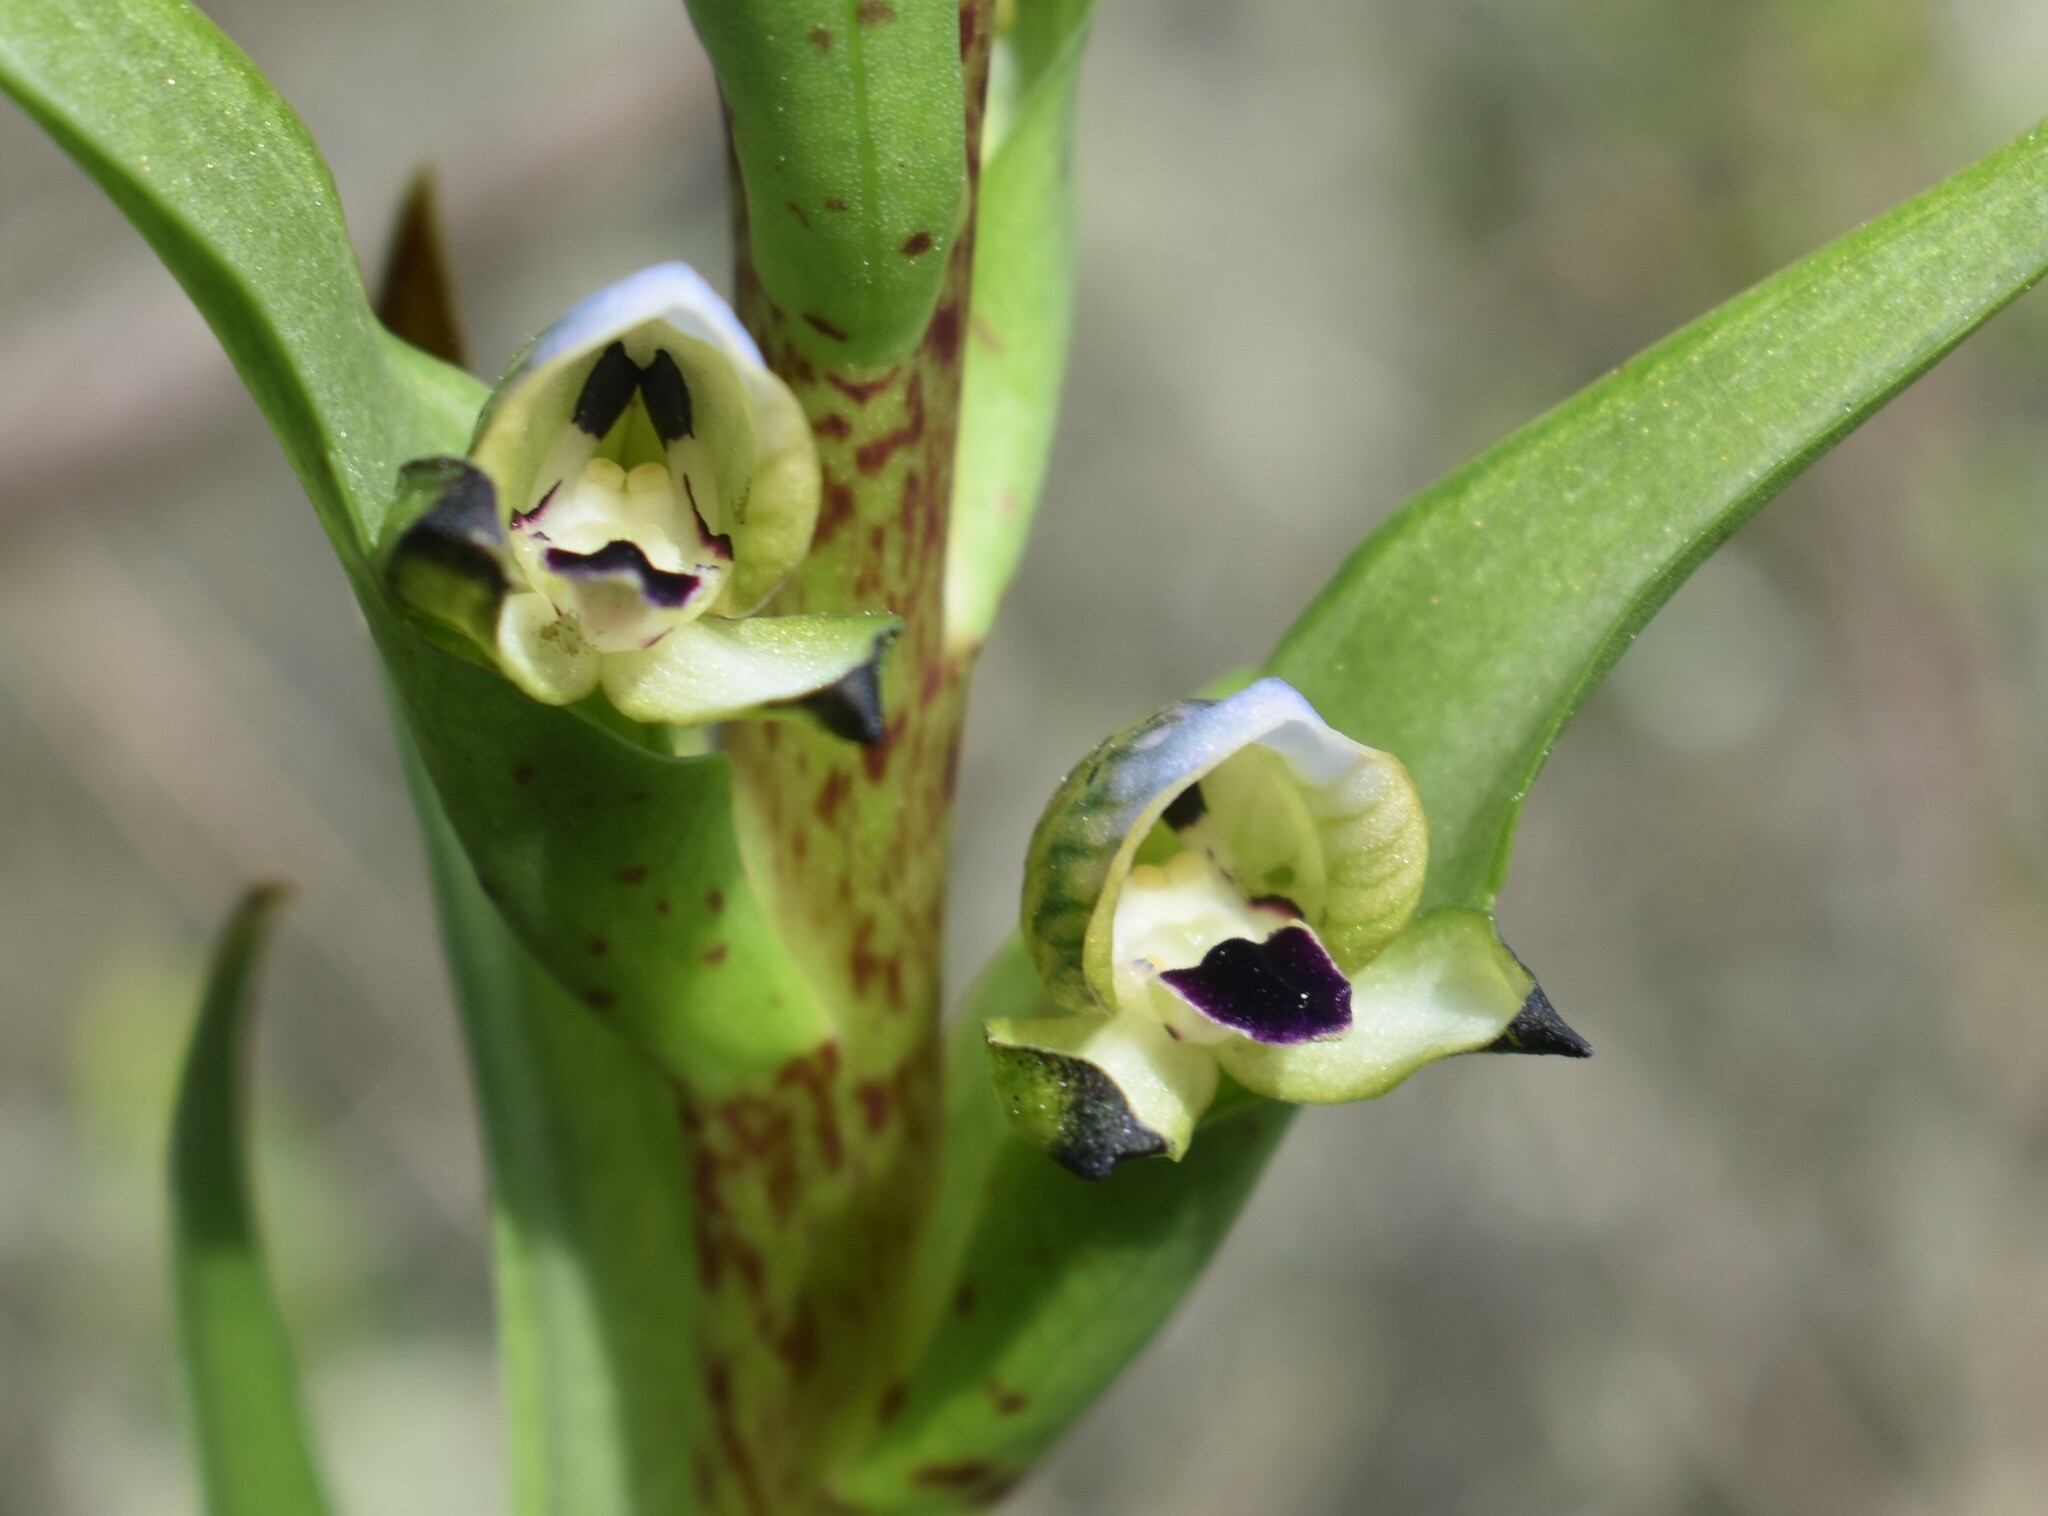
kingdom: Plantae
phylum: Tracheophyta
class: Liliopsida
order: Asparagales
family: Orchidaceae
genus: Disa
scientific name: Disa hallackii
